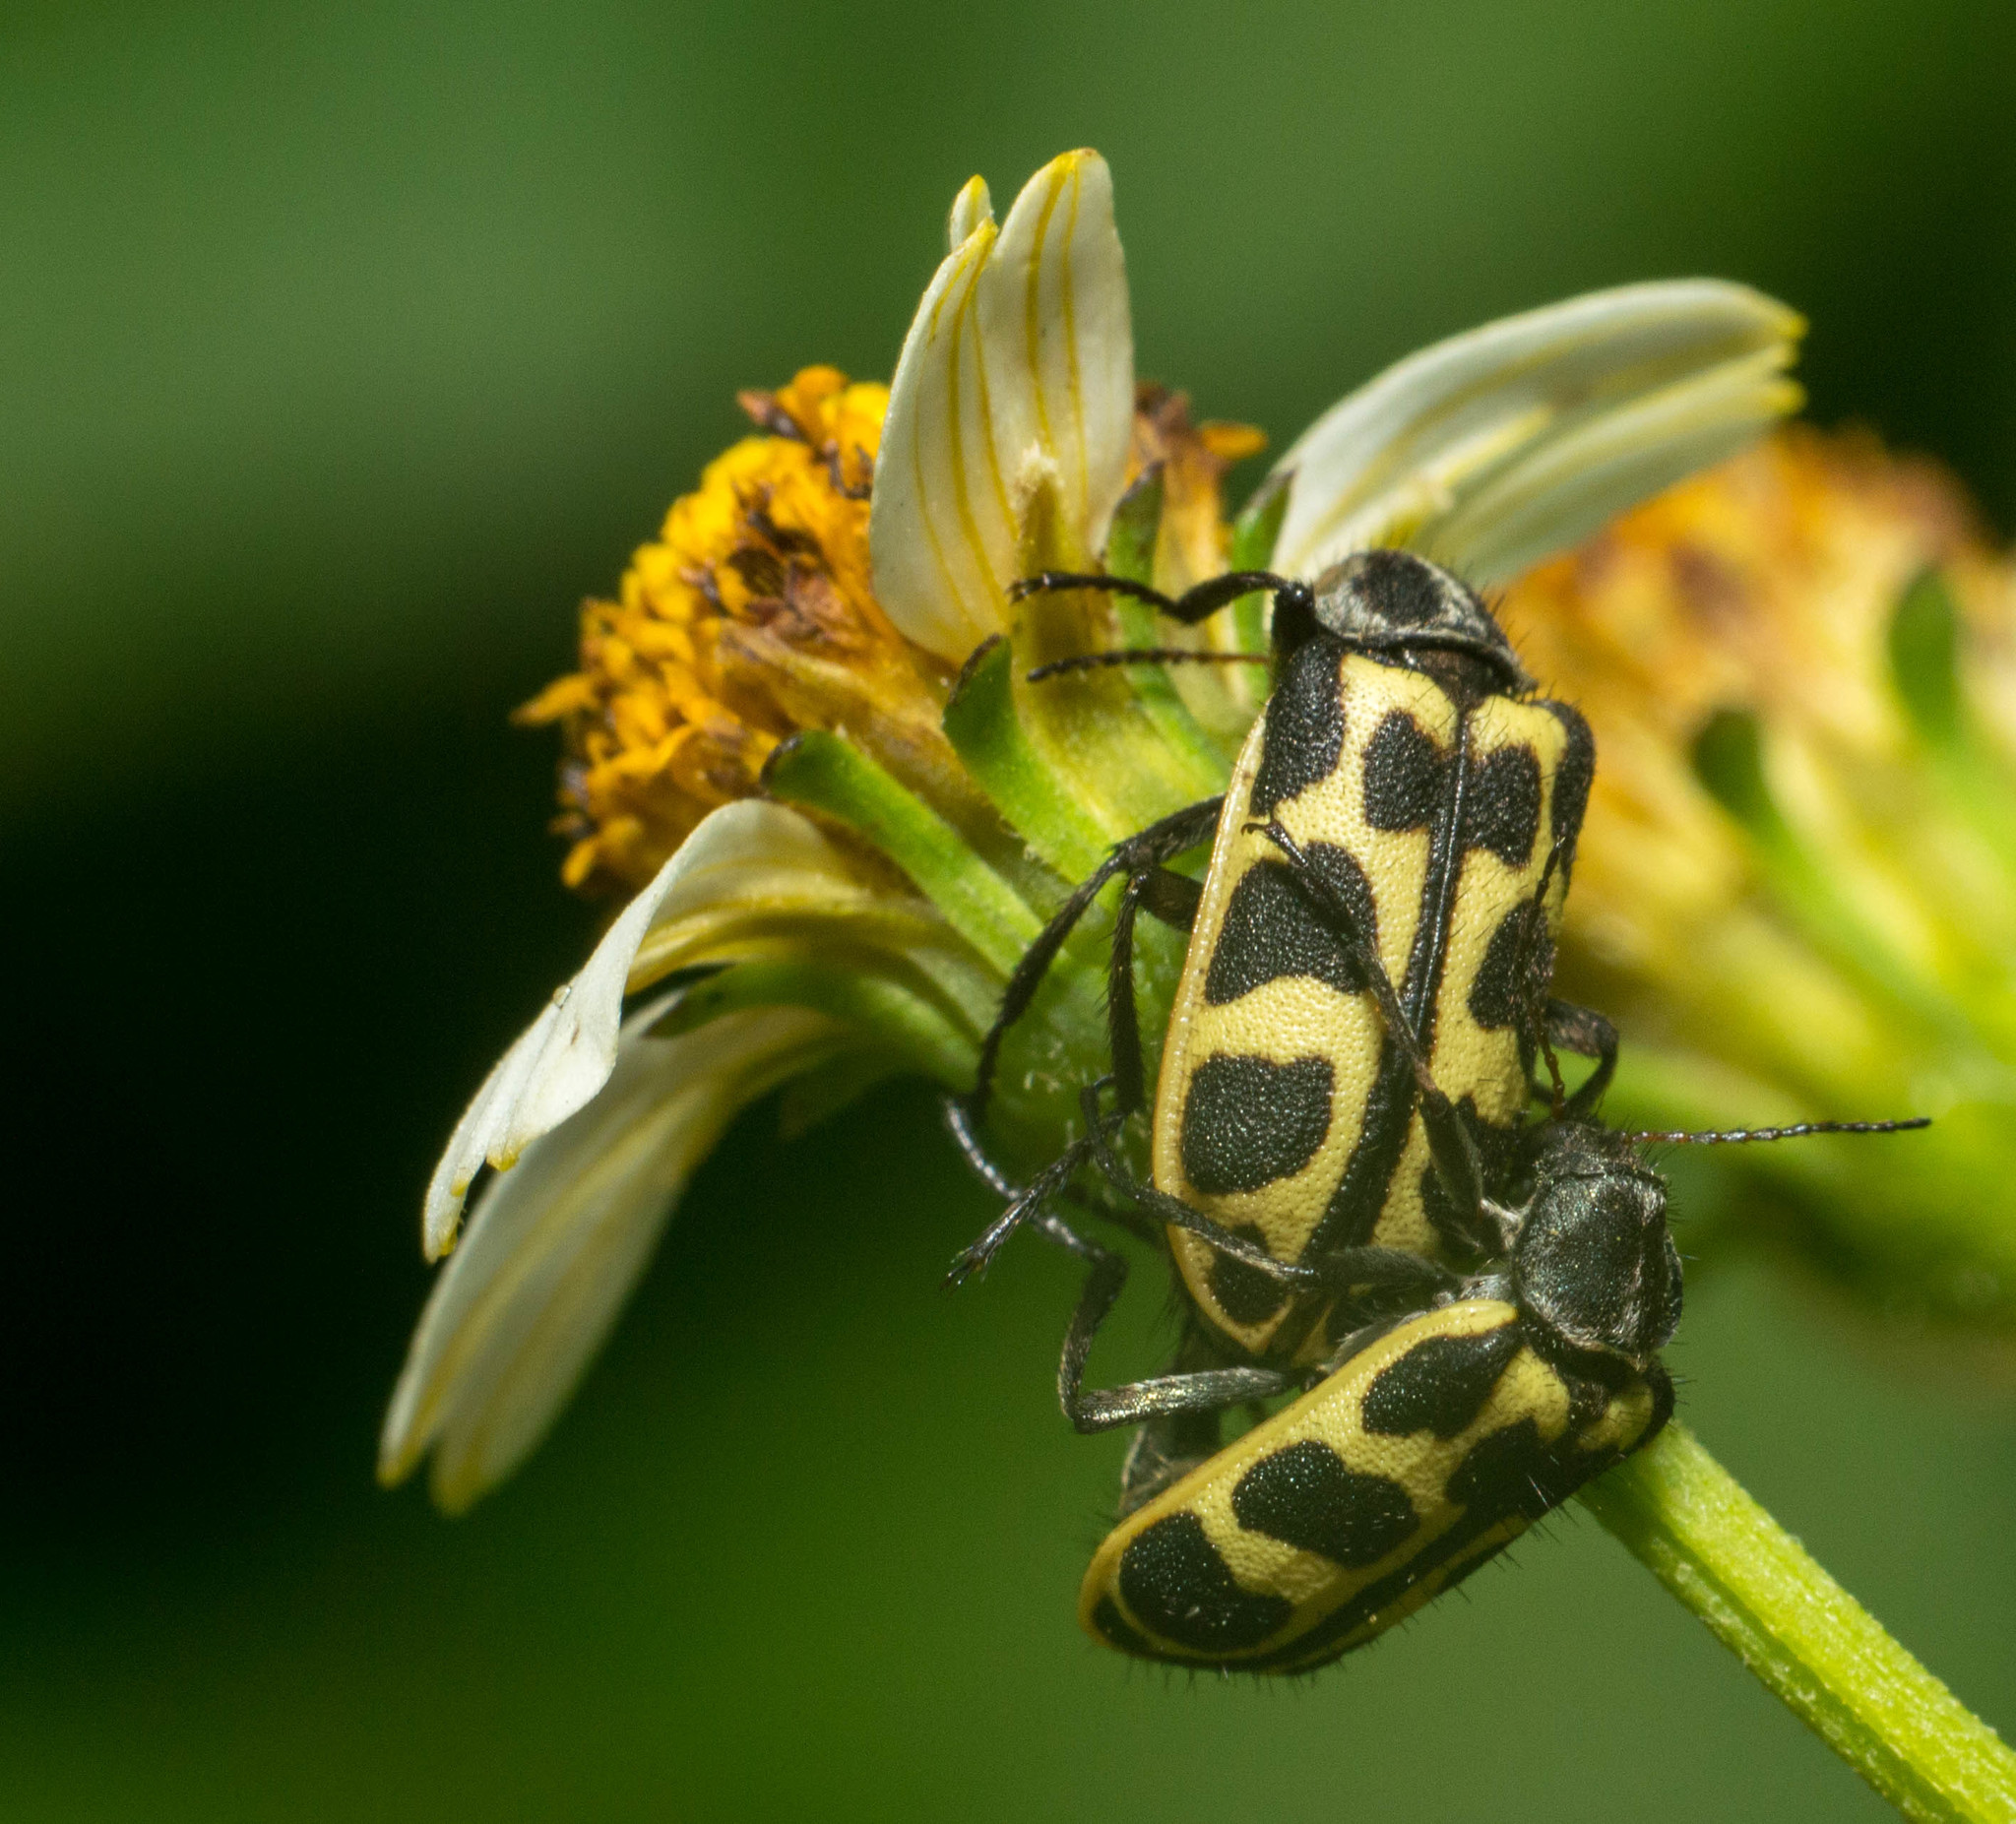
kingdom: Animalia
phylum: Arthropoda
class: Insecta
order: Coleoptera
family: Melyridae
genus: Astylus
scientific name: Astylus atromaculatus
